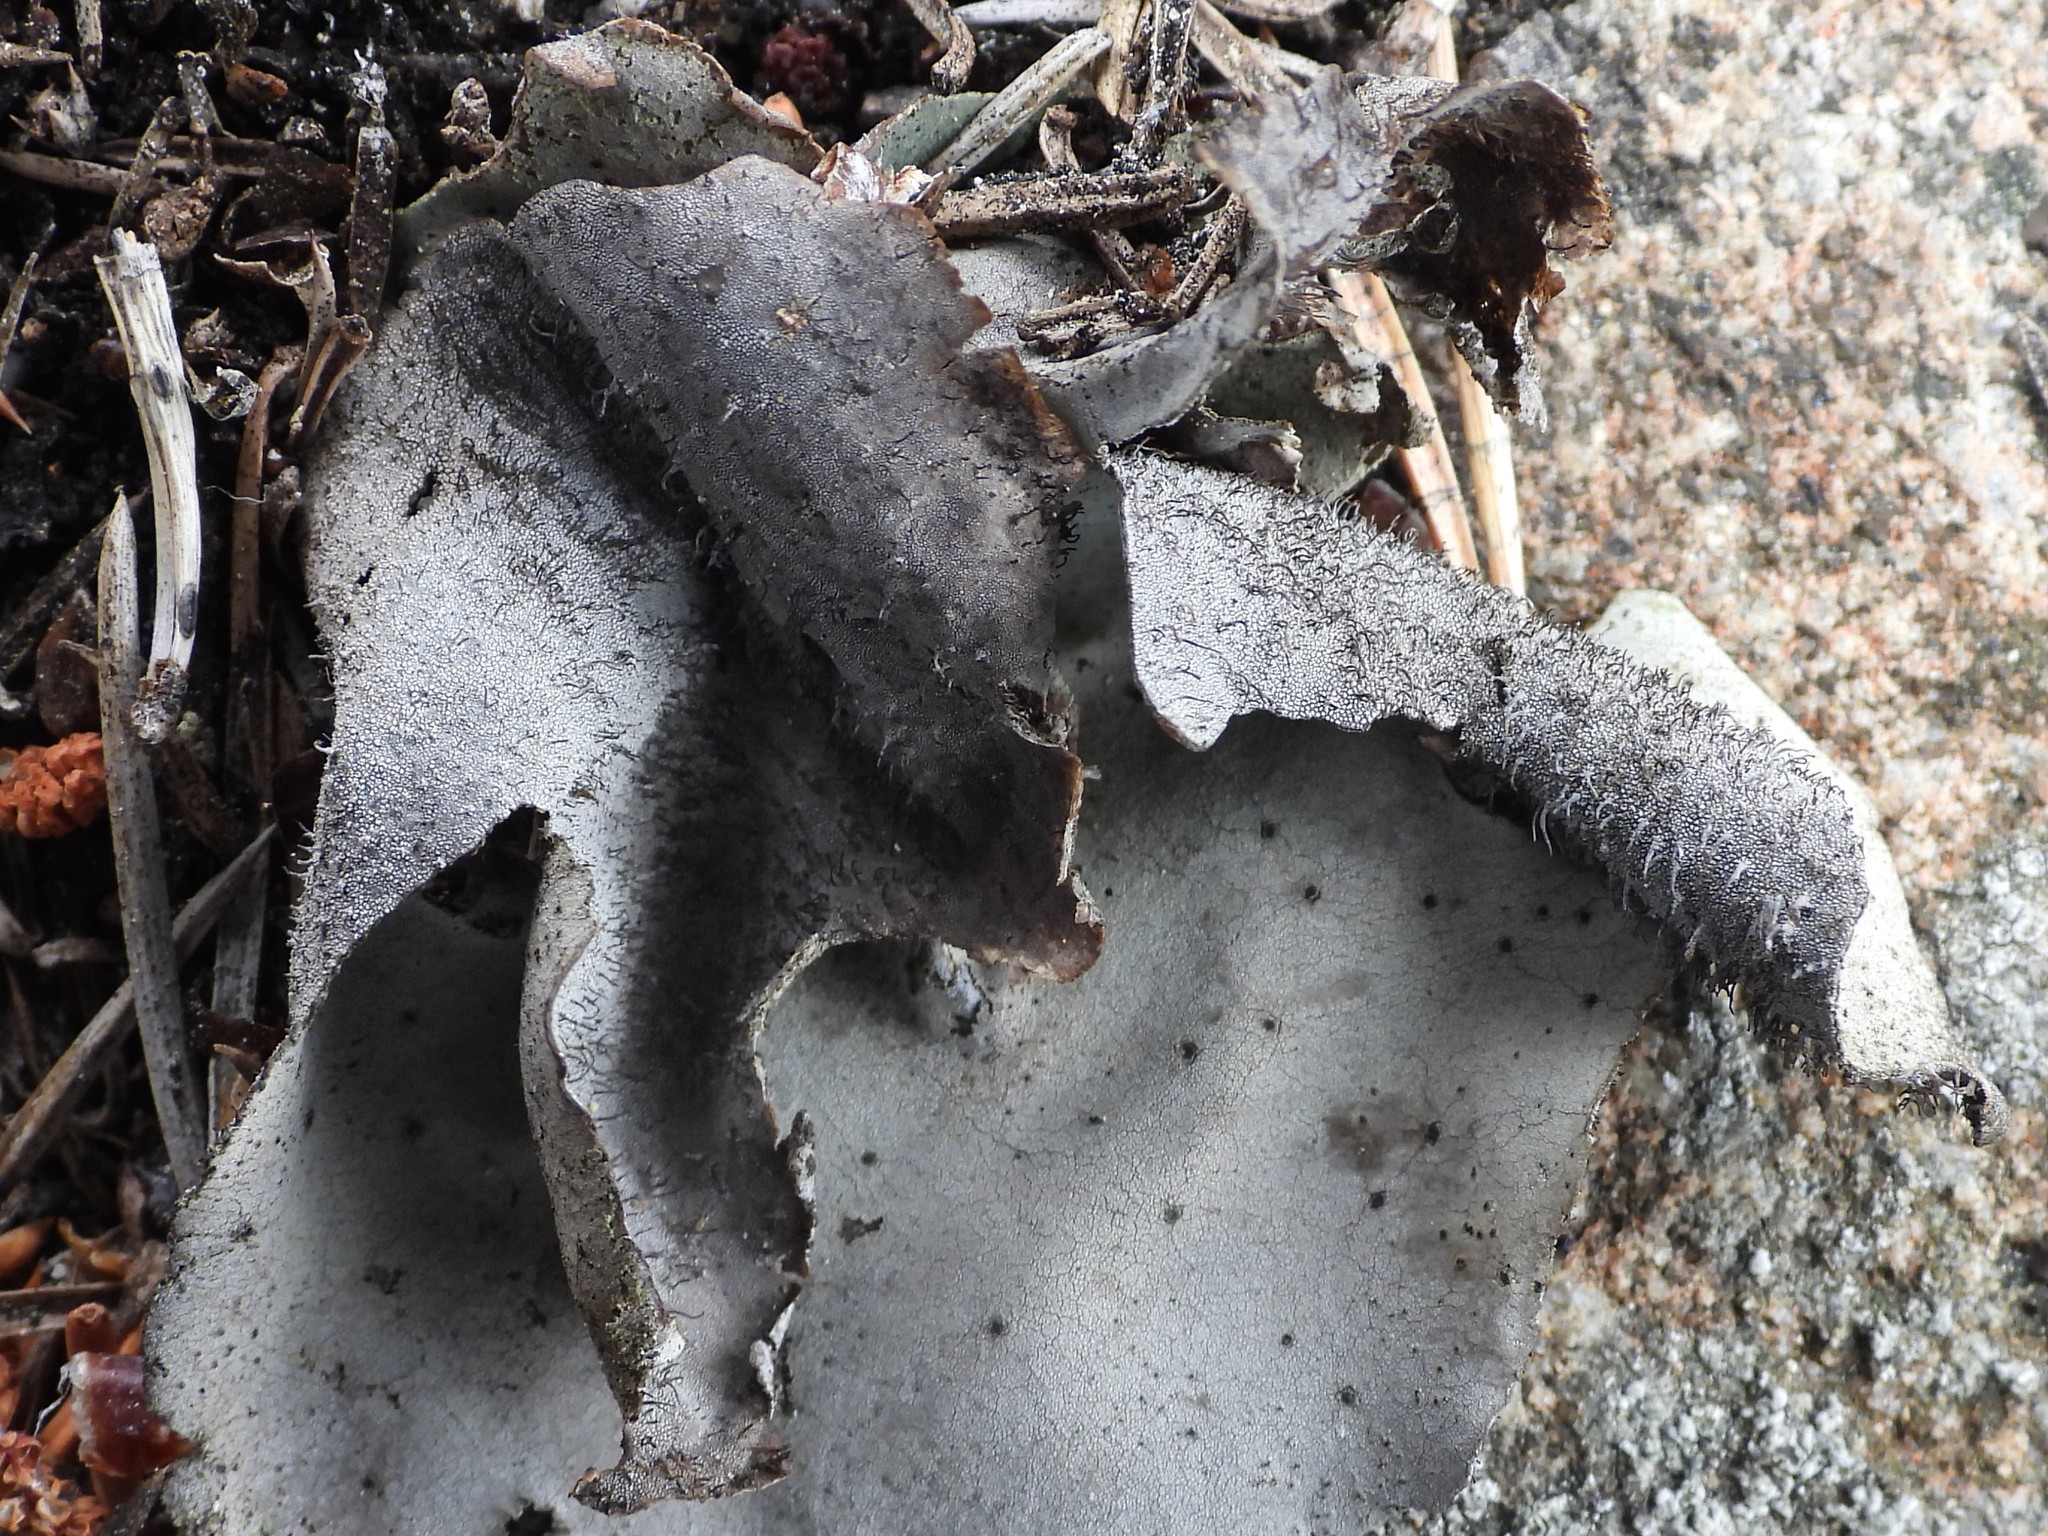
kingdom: Fungi
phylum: Ascomycota
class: Lecanoromycetes
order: Umbilicariales
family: Umbilicariaceae
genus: Umbilicaria
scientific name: Umbilicaria hirsuta
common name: Granulating rocktripe lichen
